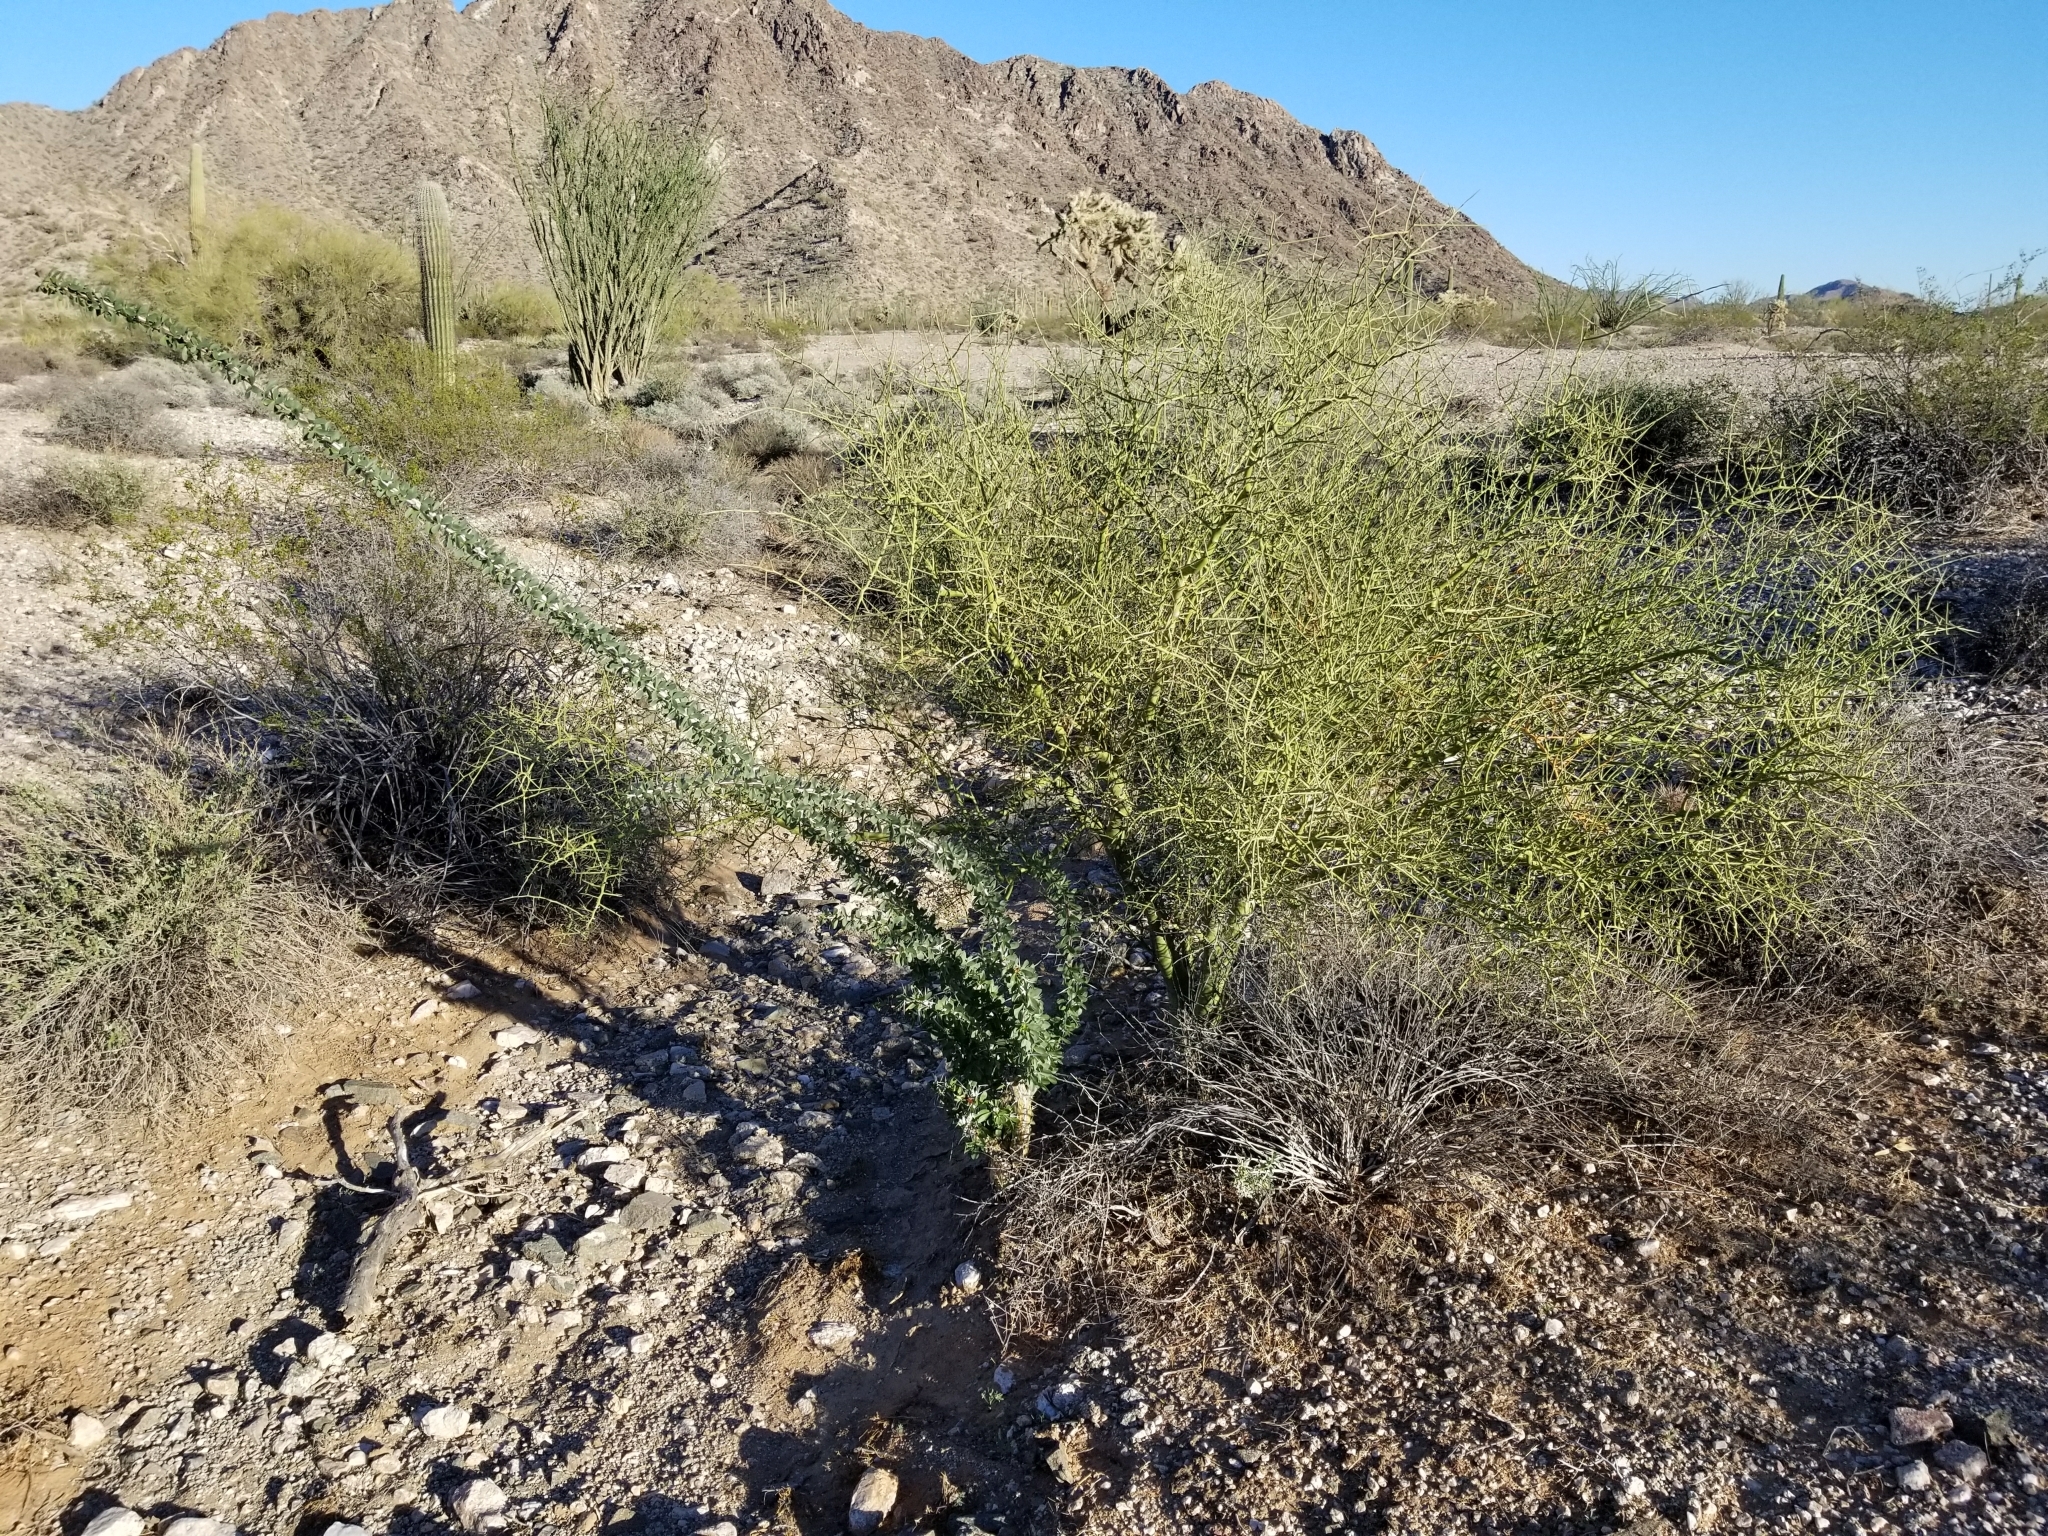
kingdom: Plantae
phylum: Tracheophyta
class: Magnoliopsida
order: Fabales
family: Fabaceae
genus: Parkinsonia
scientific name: Parkinsonia microphylla
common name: Yellow paloverde
